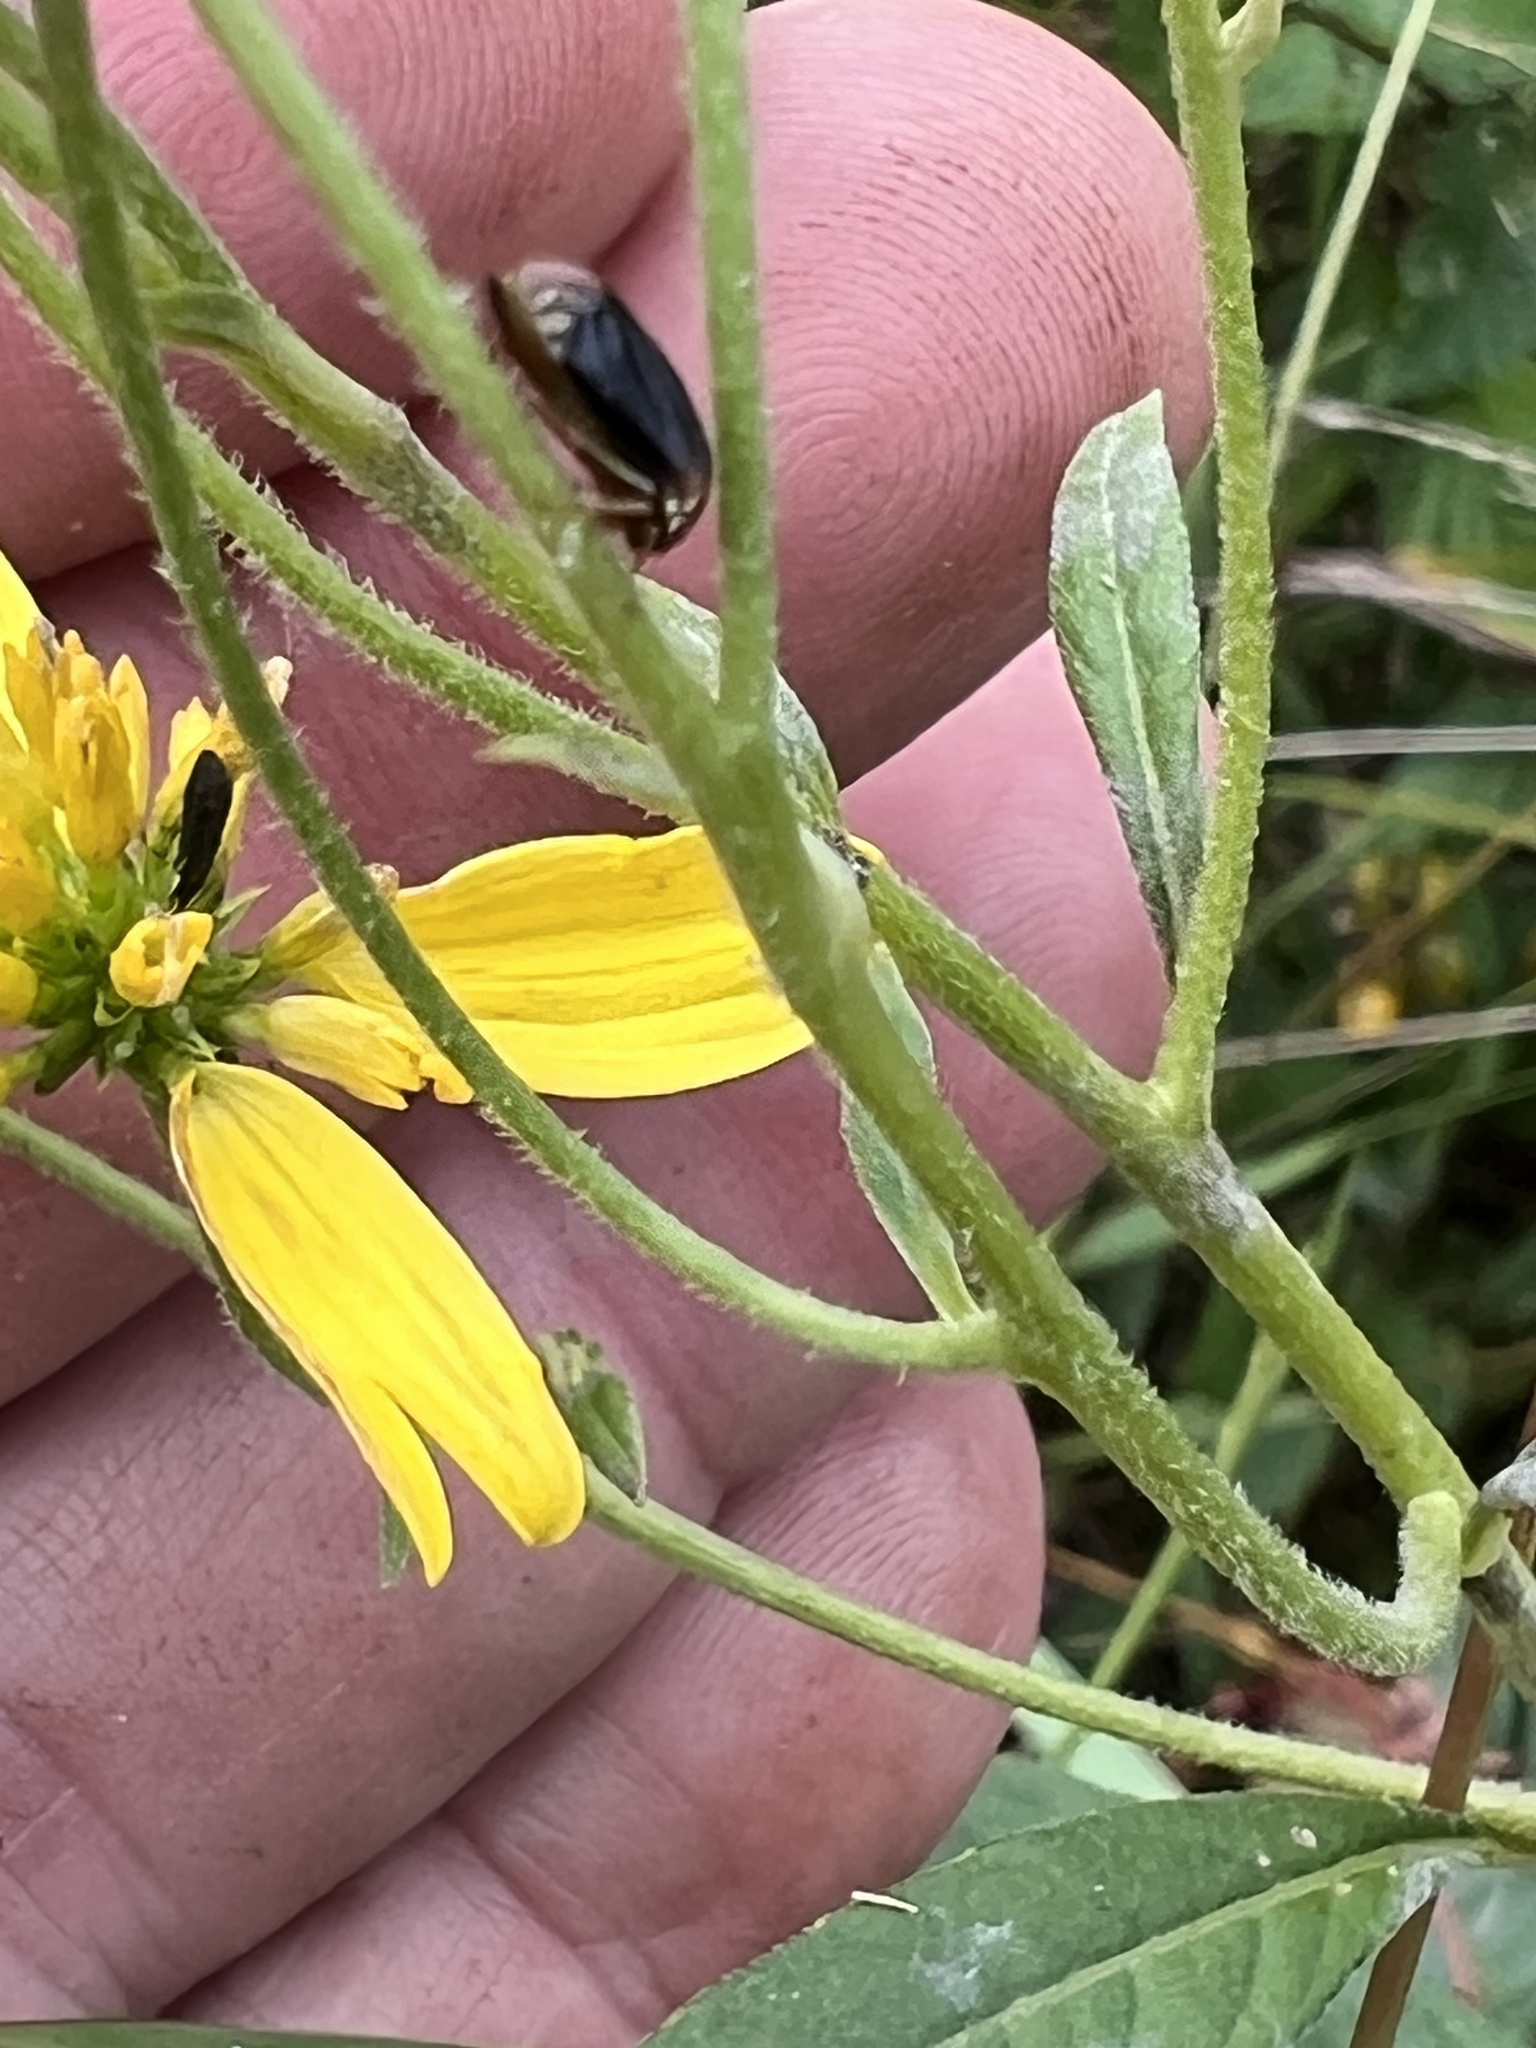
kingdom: Animalia
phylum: Arthropoda
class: Insecta
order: Hemiptera
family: Membracidae
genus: Acutalis
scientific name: Acutalis tartarea
